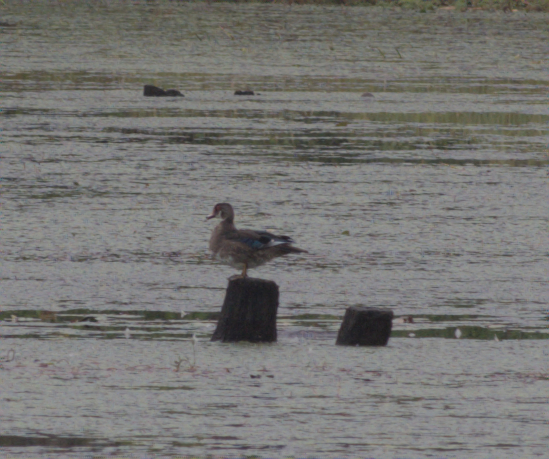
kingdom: Animalia
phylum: Chordata
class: Aves
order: Anseriformes
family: Anatidae
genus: Aix
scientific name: Aix sponsa
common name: Wood duck
